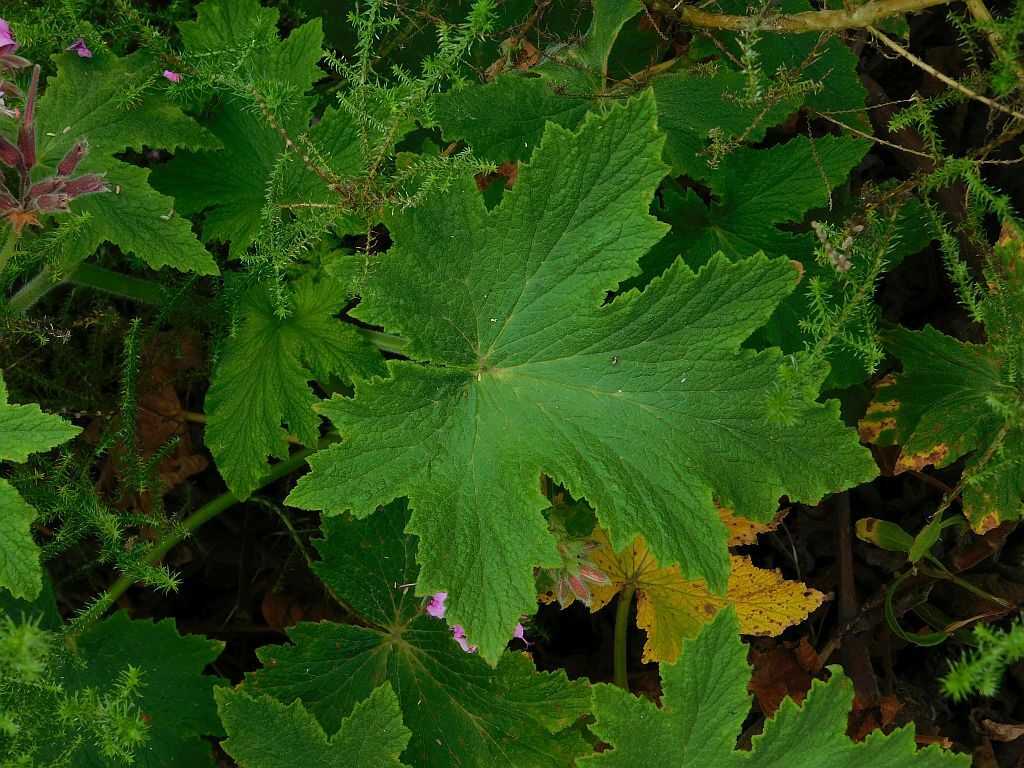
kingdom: Plantae
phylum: Tracheophyta
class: Magnoliopsida
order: Geraniales
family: Geraniaceae
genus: Pelargonium
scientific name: Pelargonium hispidum
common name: Hispid pelargonium
